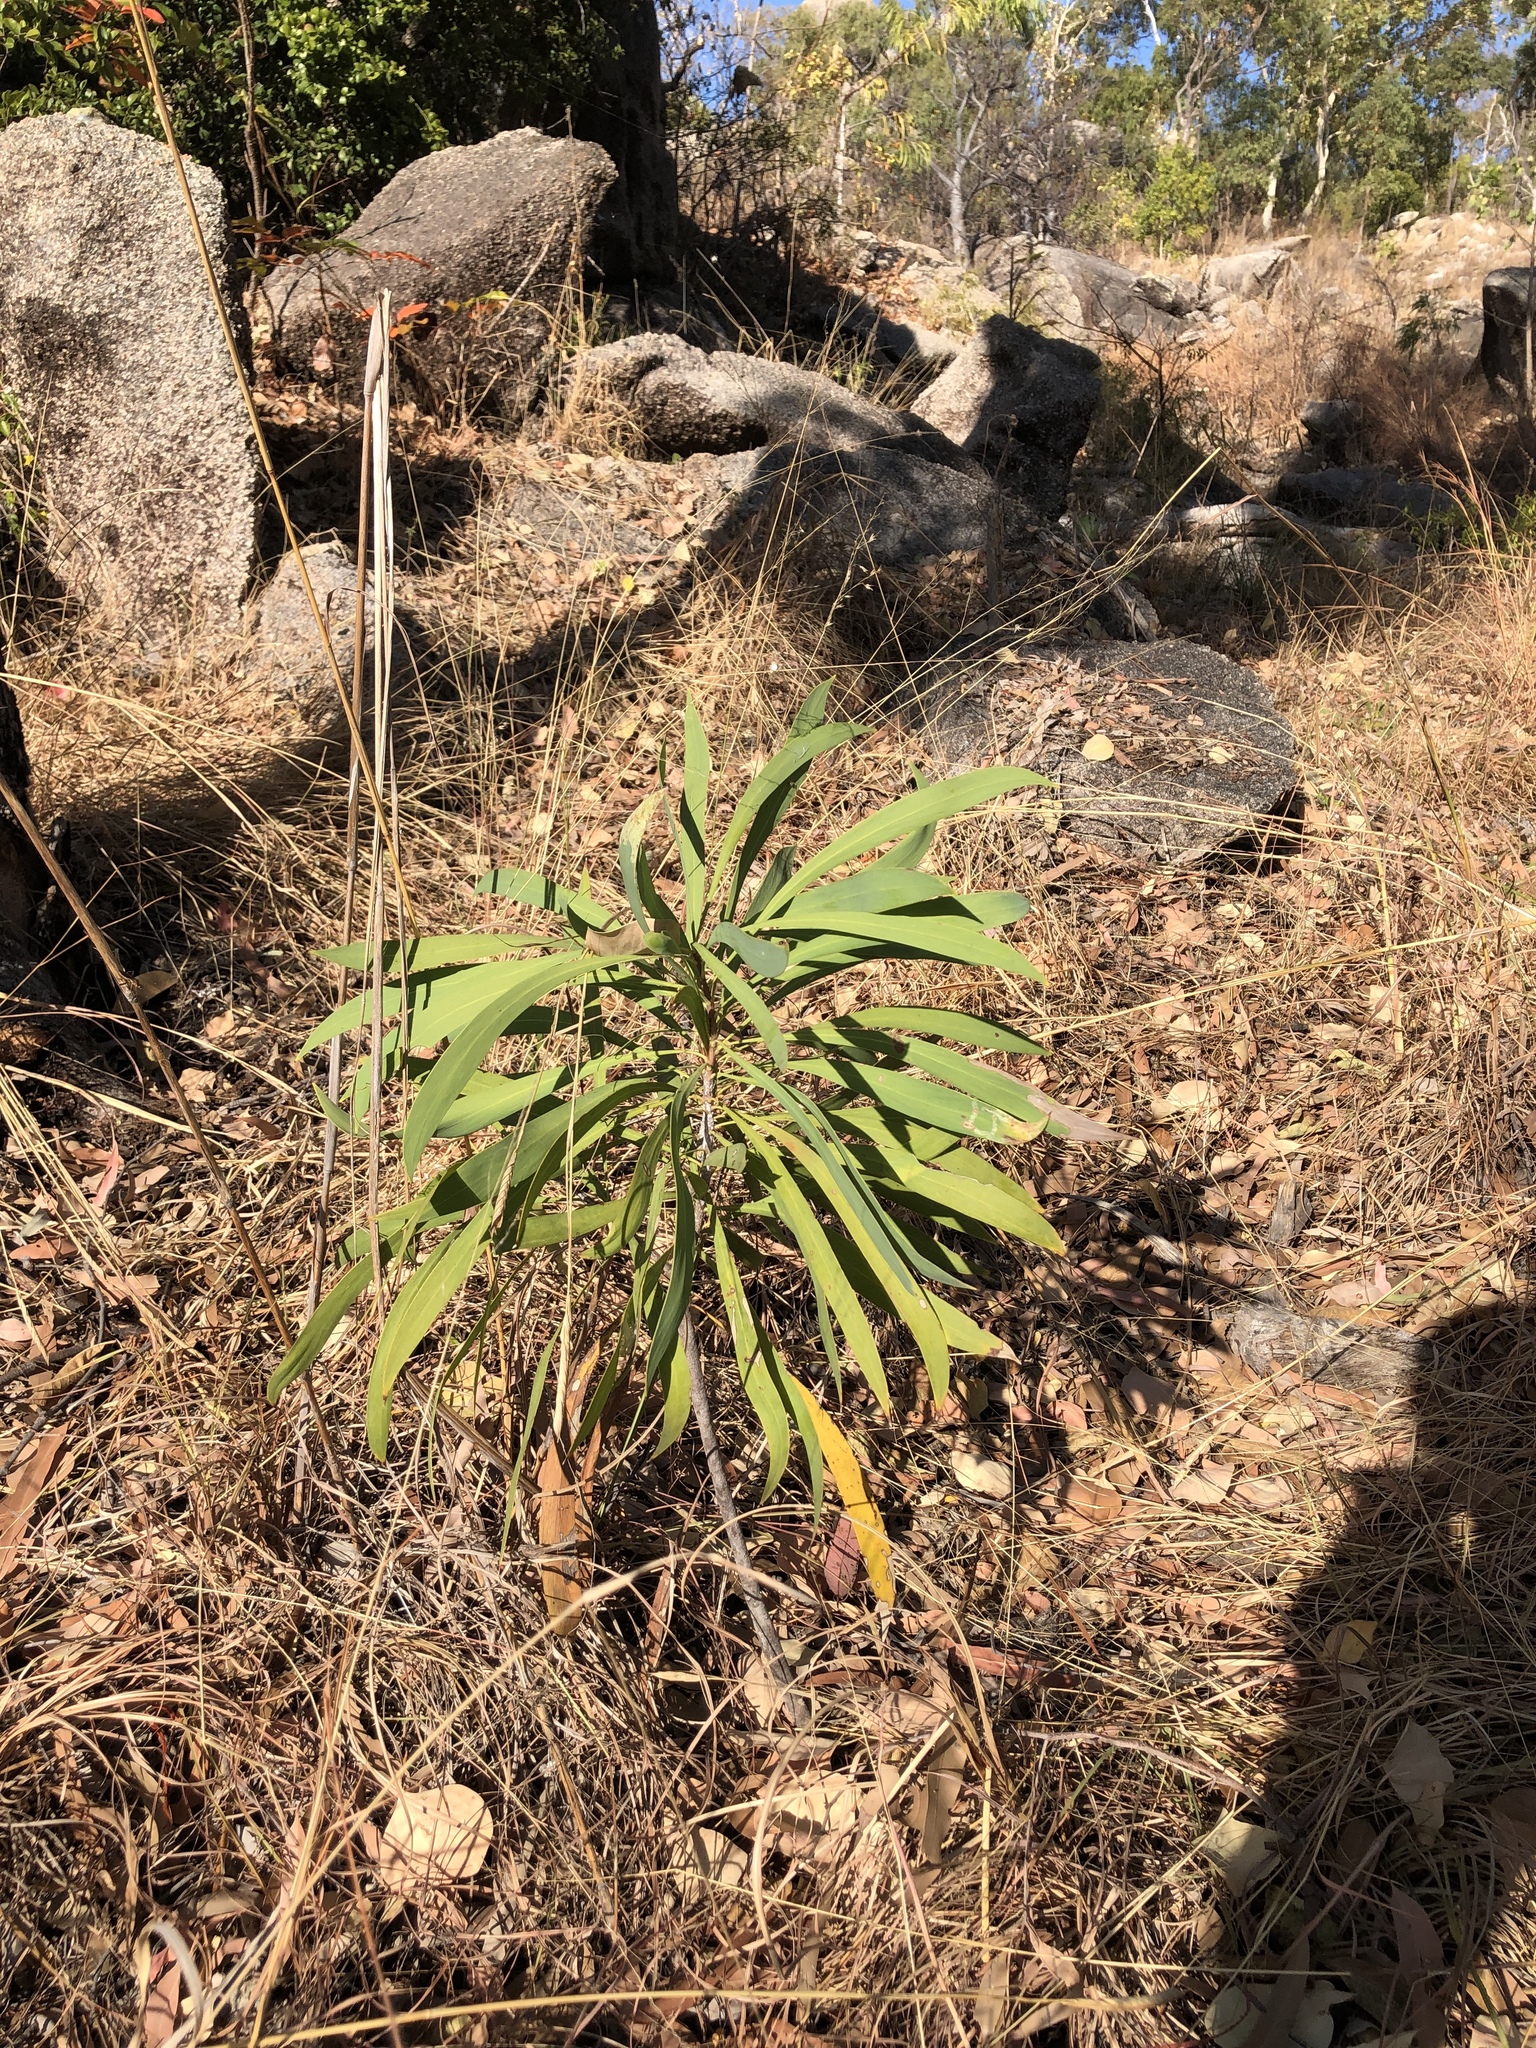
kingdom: Plantae
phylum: Tracheophyta
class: Magnoliopsida
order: Proteales
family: Proteaceae
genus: Persoonia
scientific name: Persoonia falcata
